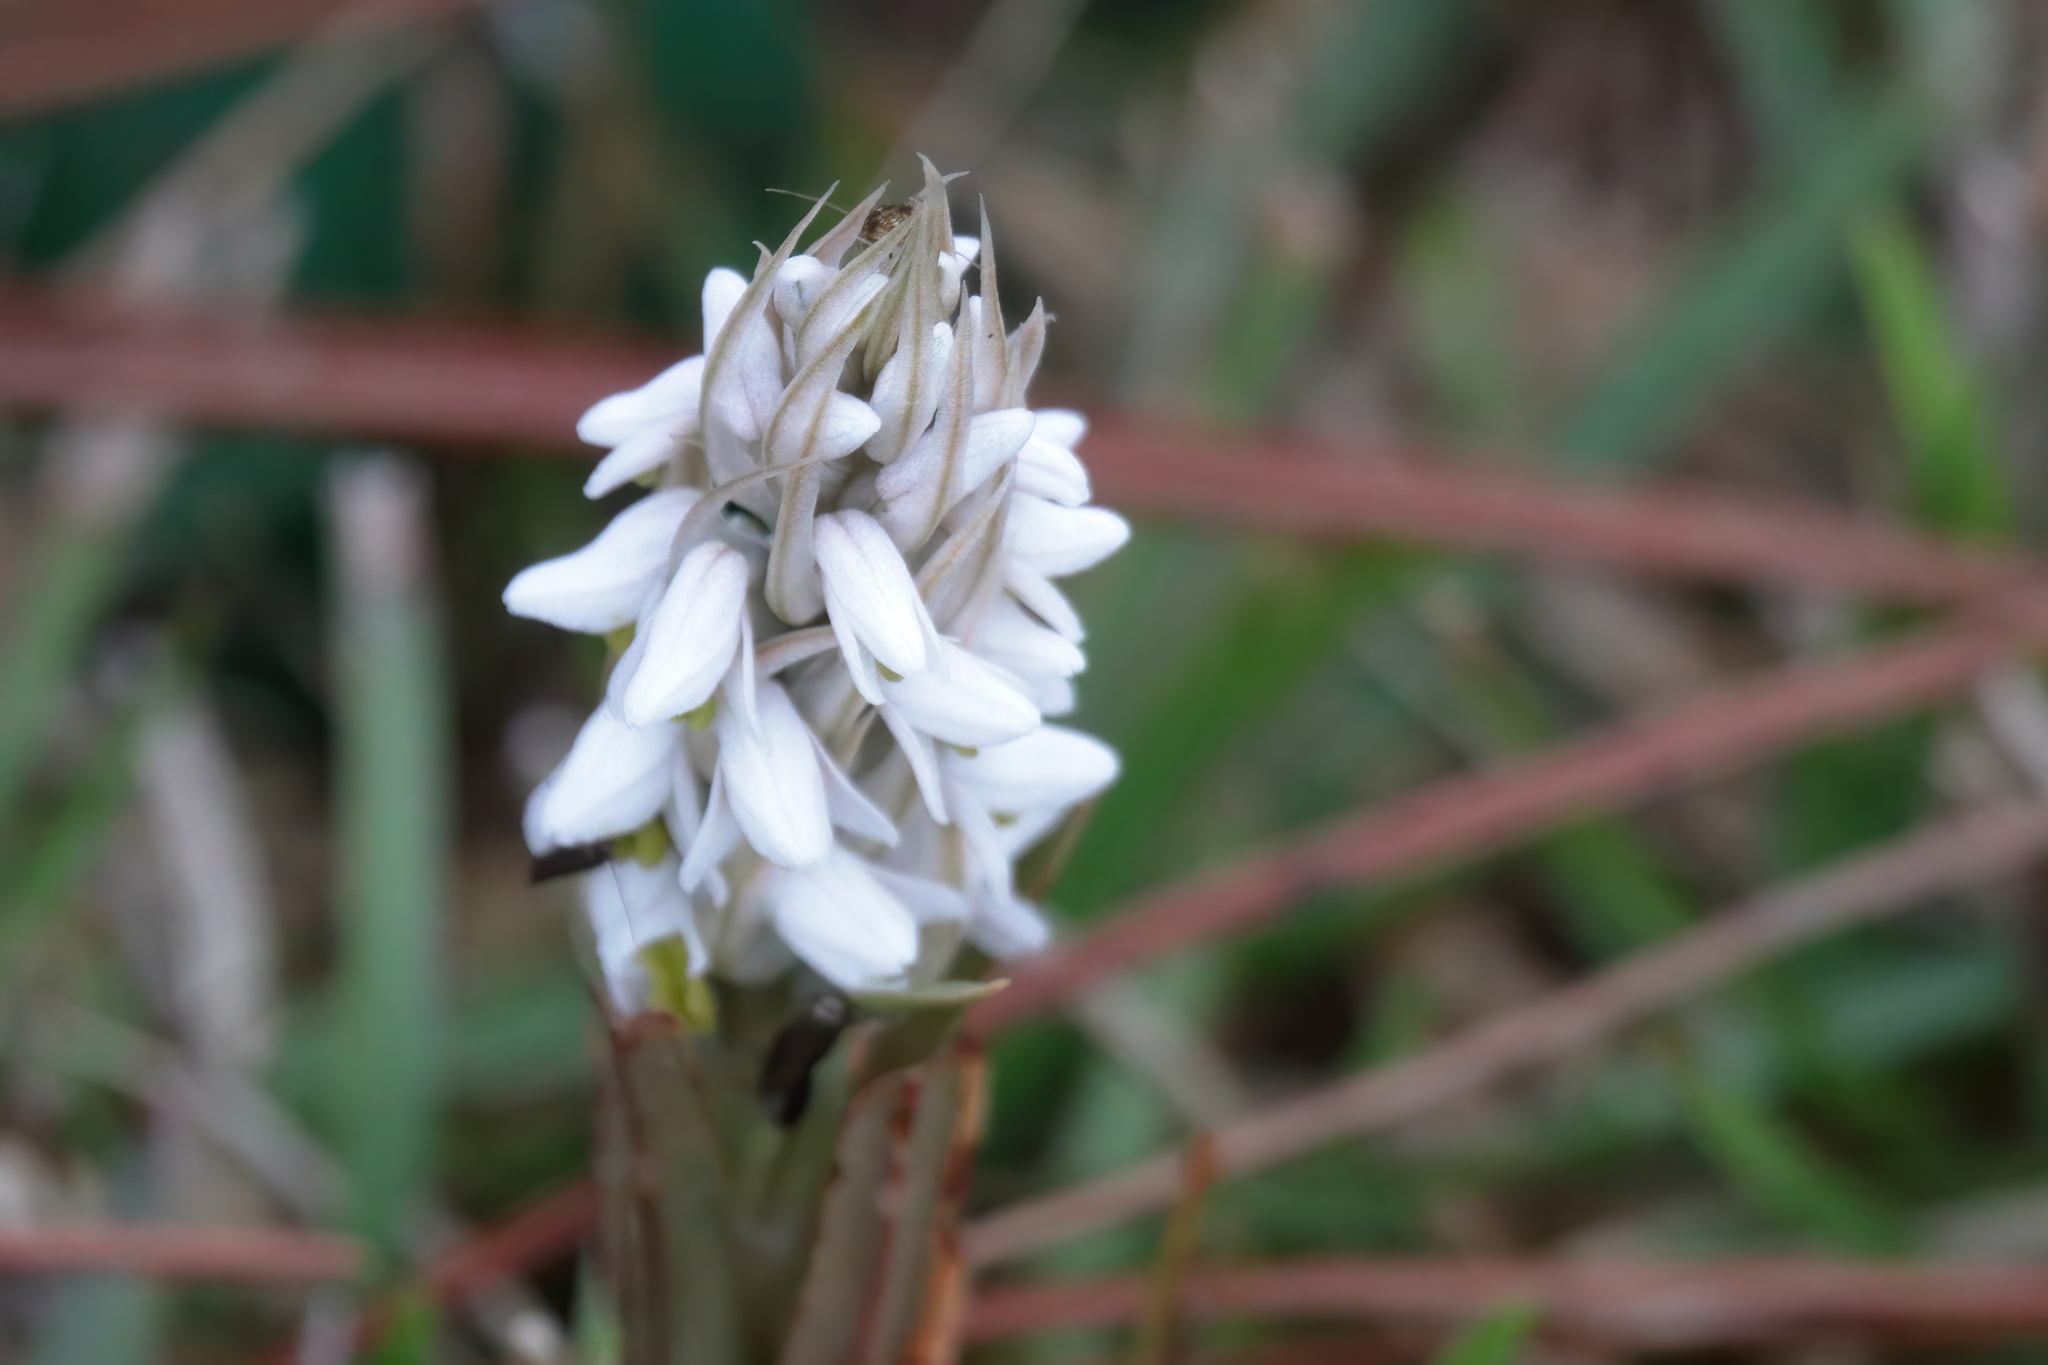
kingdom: Plantae
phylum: Tracheophyta
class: Liliopsida
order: Asparagales
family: Orchidaceae
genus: Zeuxine
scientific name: Zeuxine strateumatica
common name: Soldier's orchid
